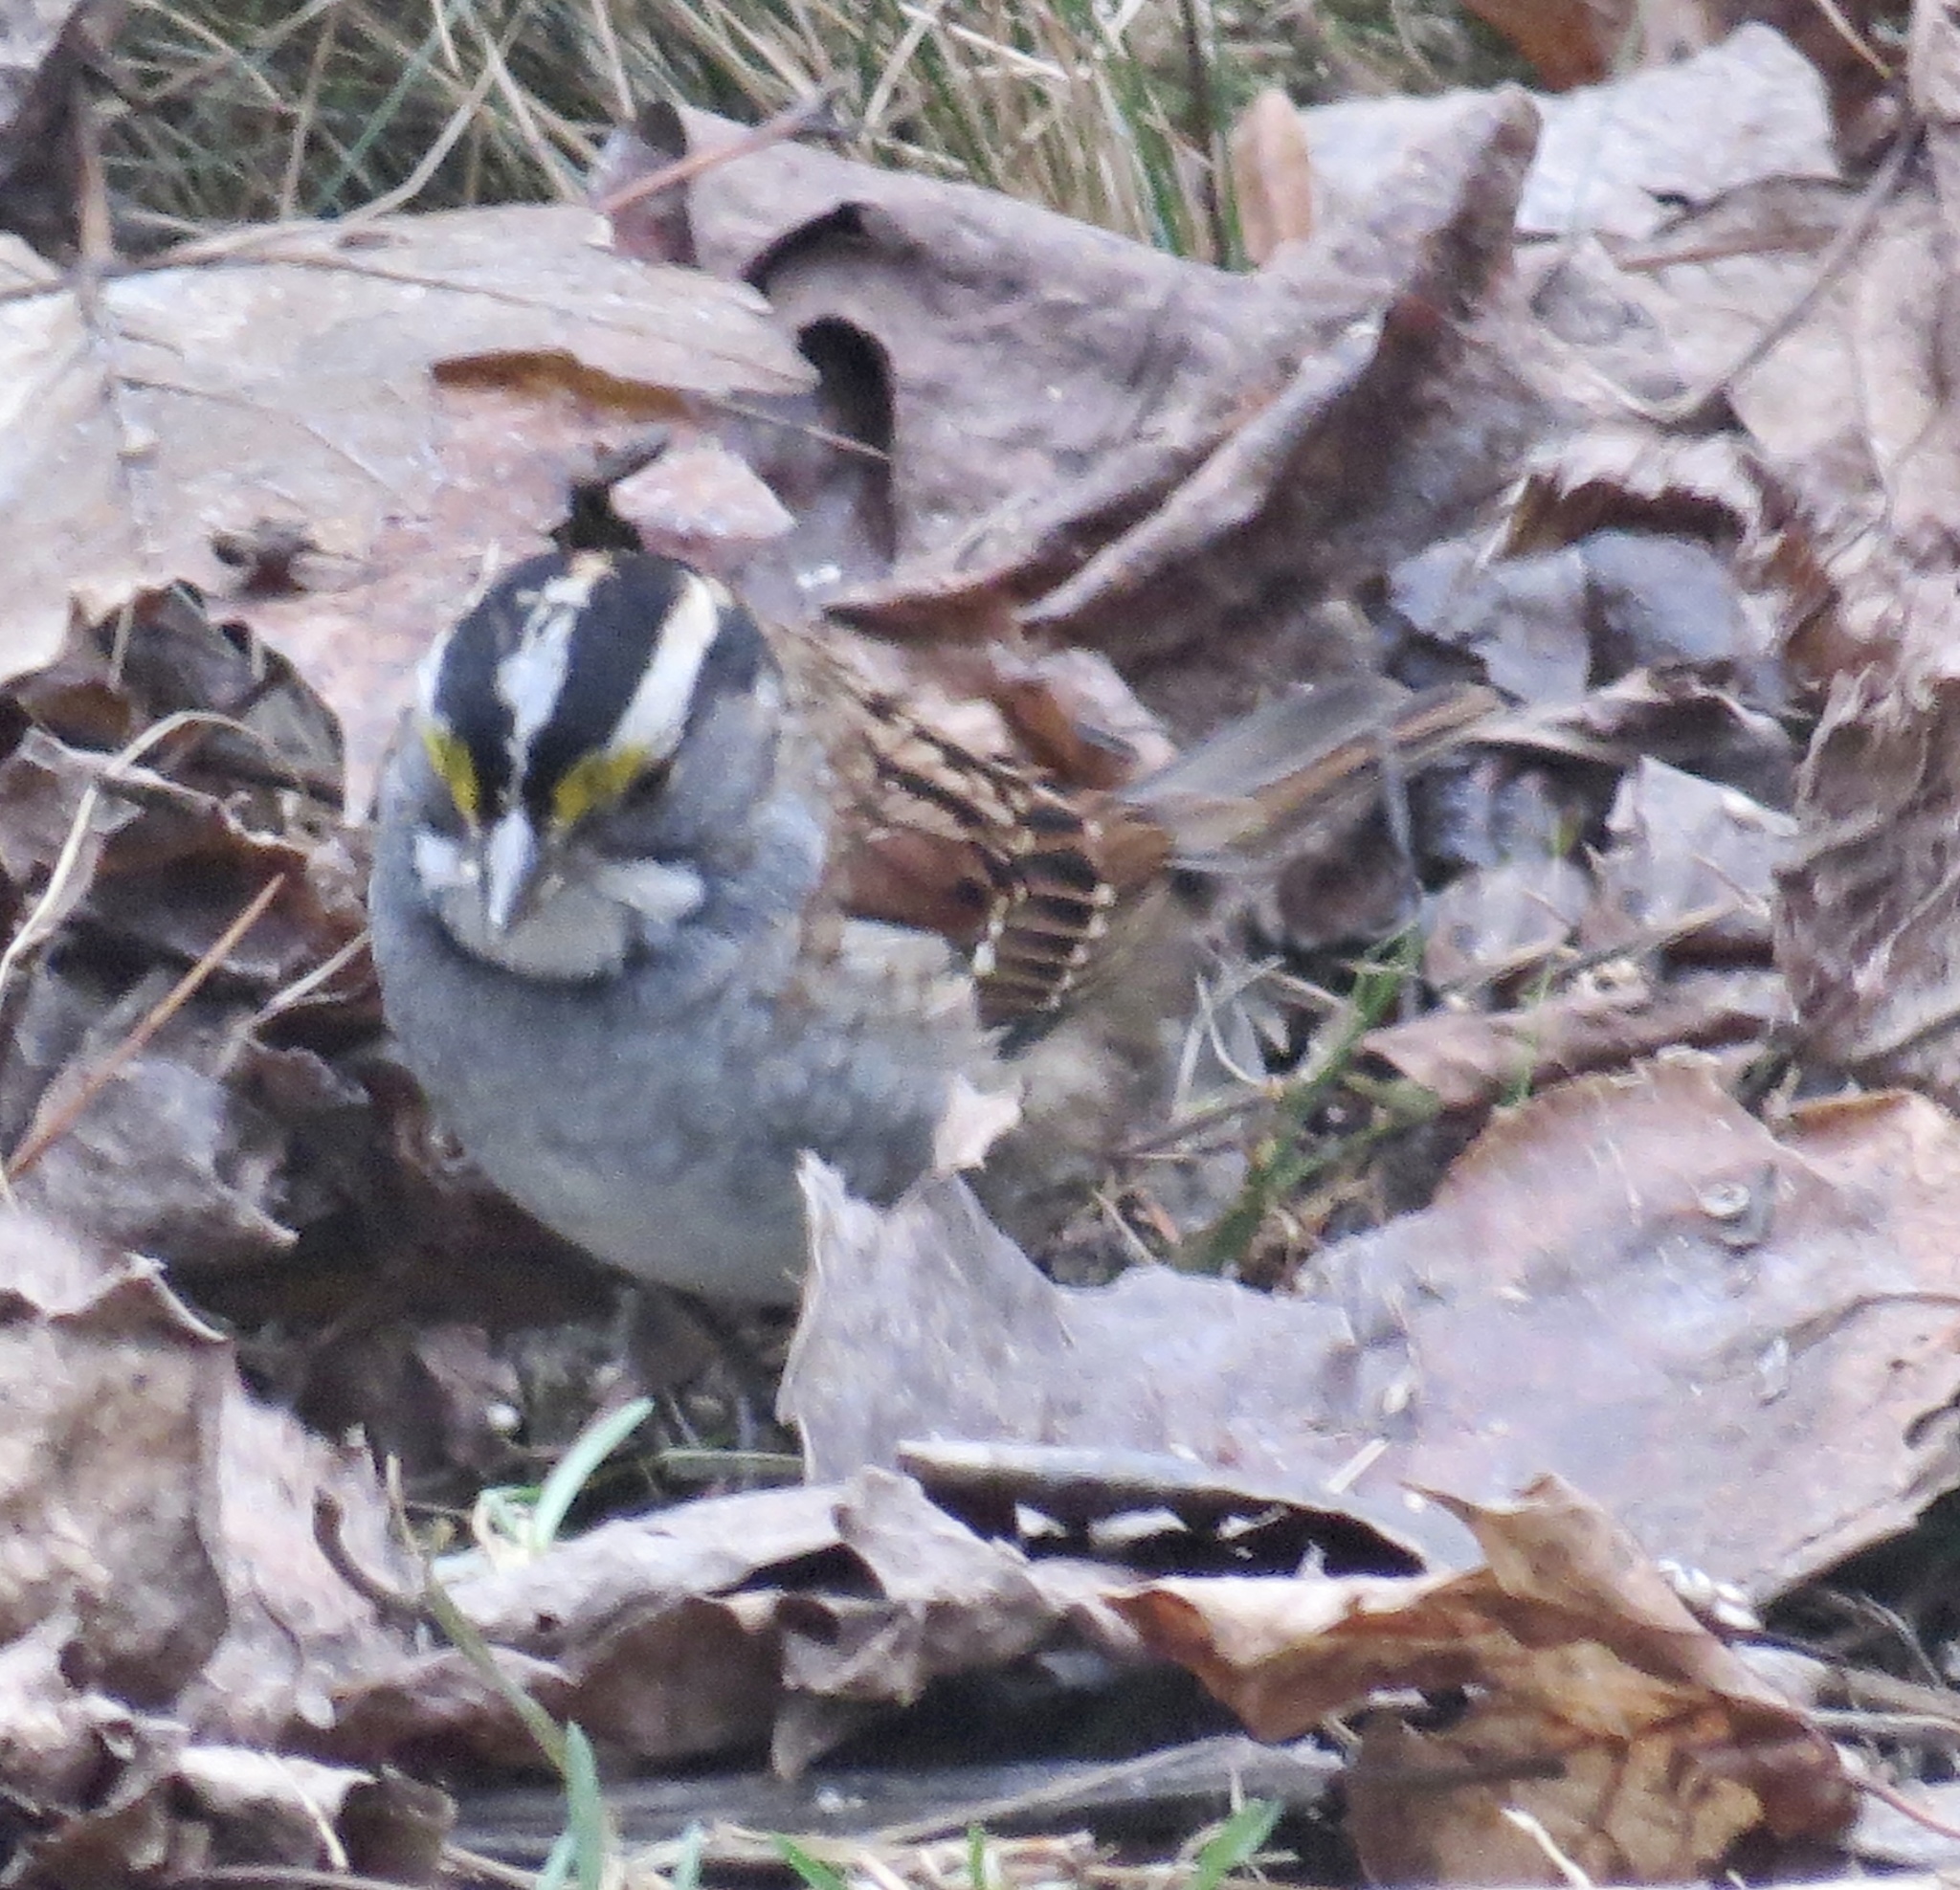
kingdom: Animalia
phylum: Chordata
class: Aves
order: Passeriformes
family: Passerellidae
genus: Zonotrichia
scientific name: Zonotrichia albicollis
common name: White-throated sparrow
